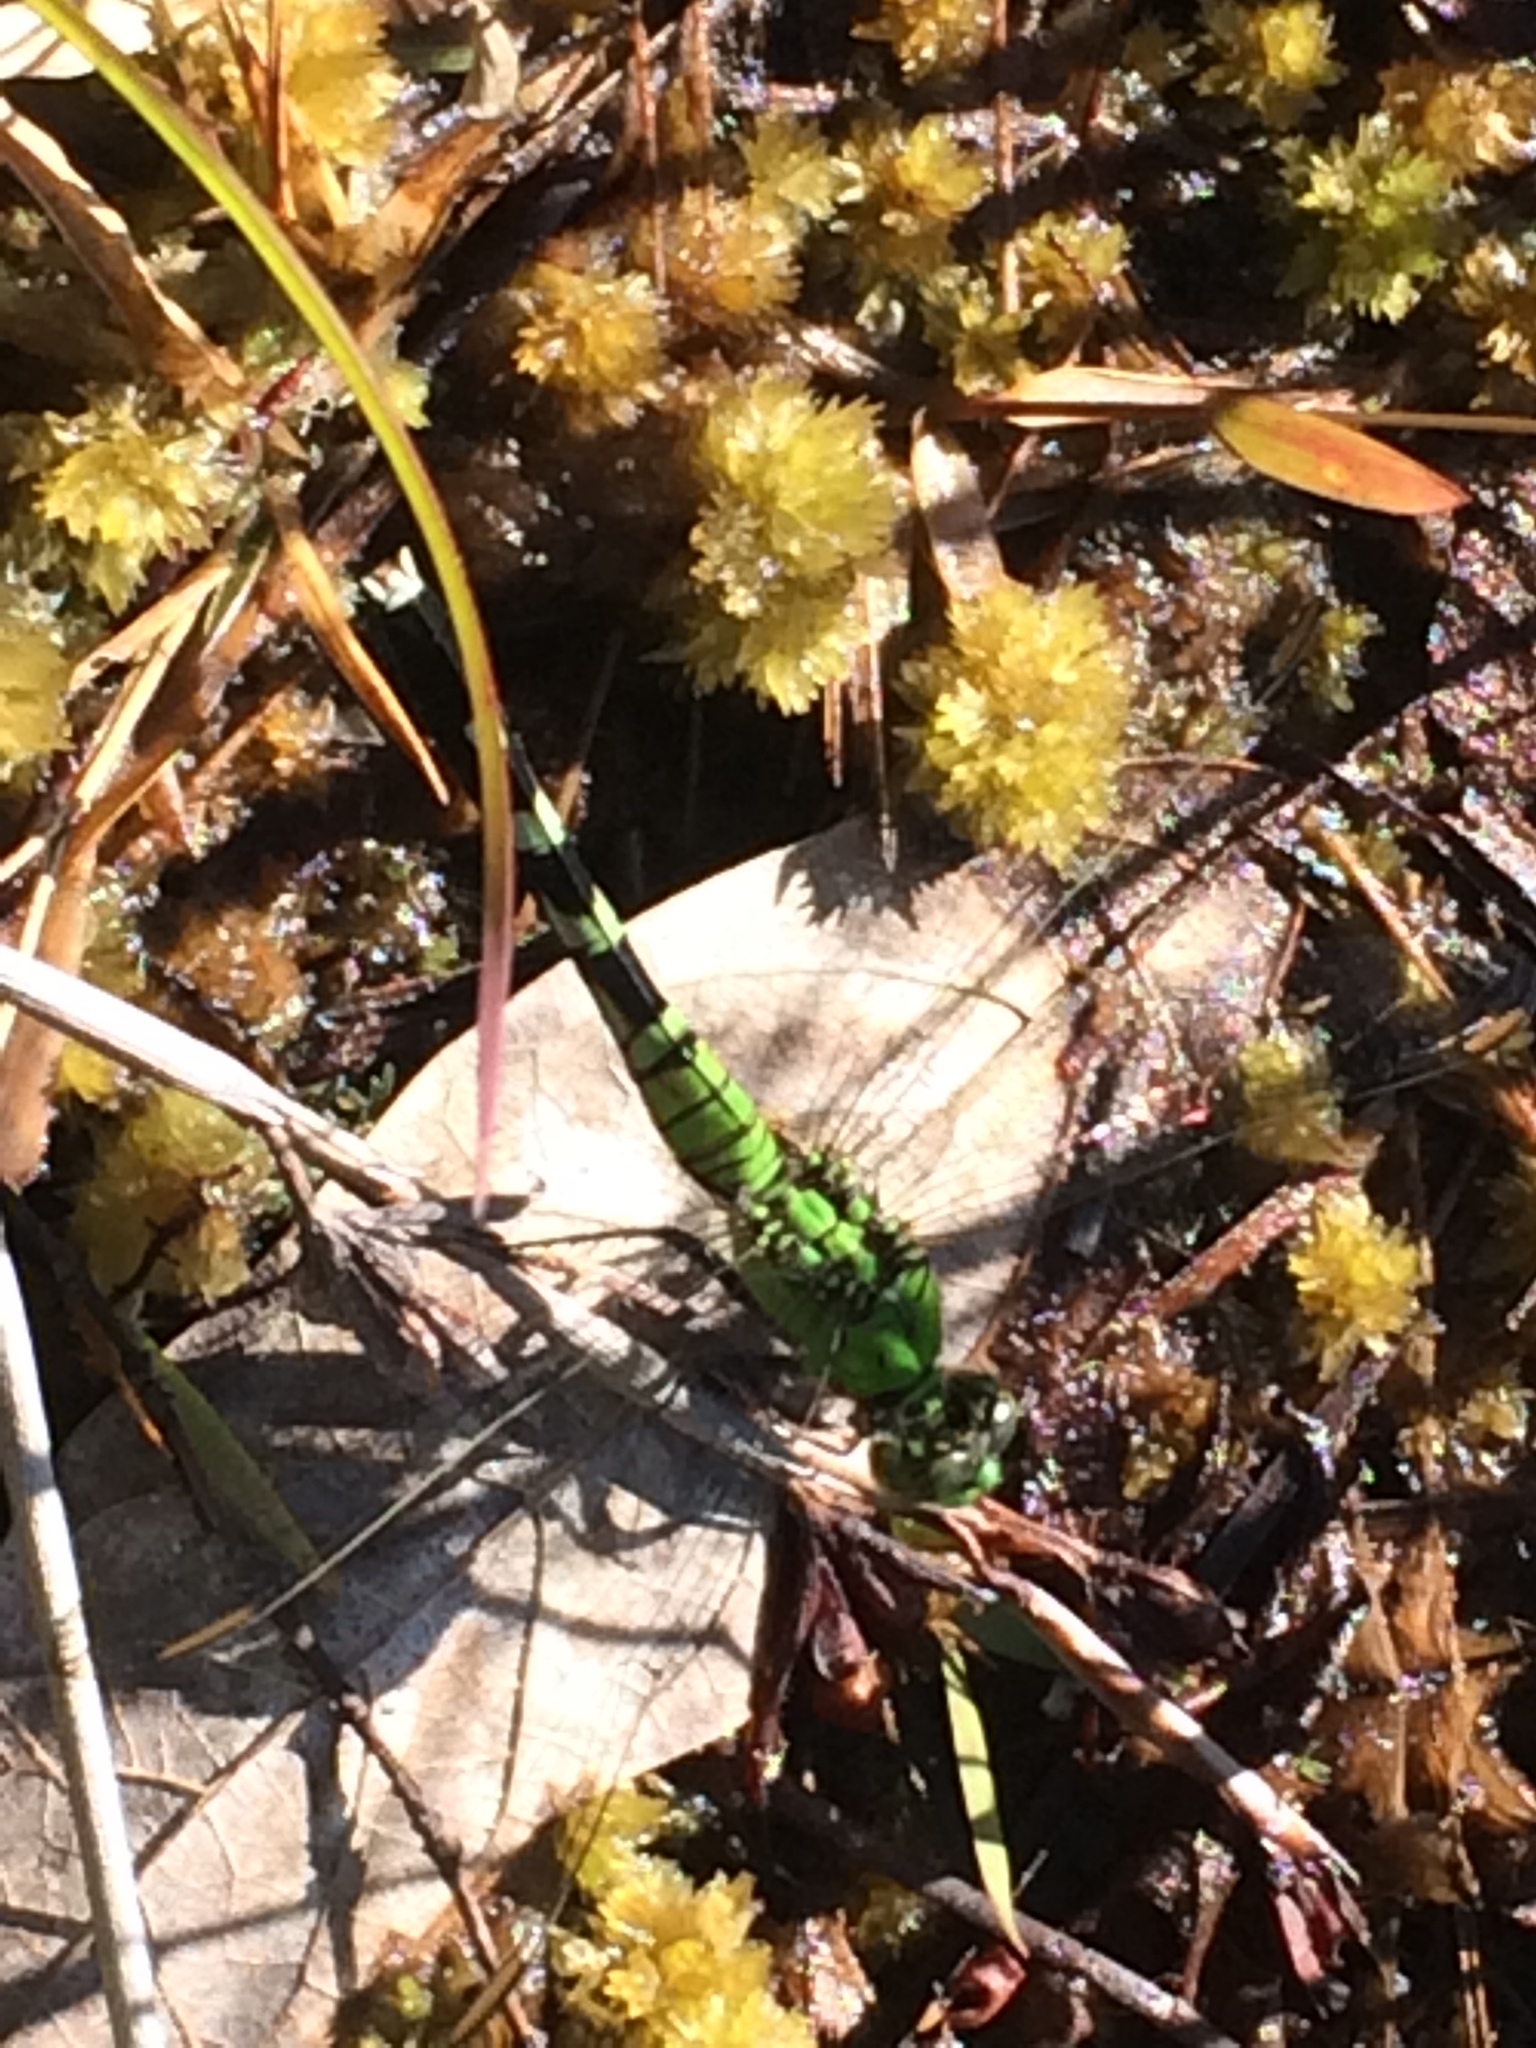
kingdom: Animalia
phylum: Arthropoda
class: Insecta
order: Odonata
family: Libellulidae
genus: Erythemis
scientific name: Erythemis simplicicollis
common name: Eastern pondhawk
